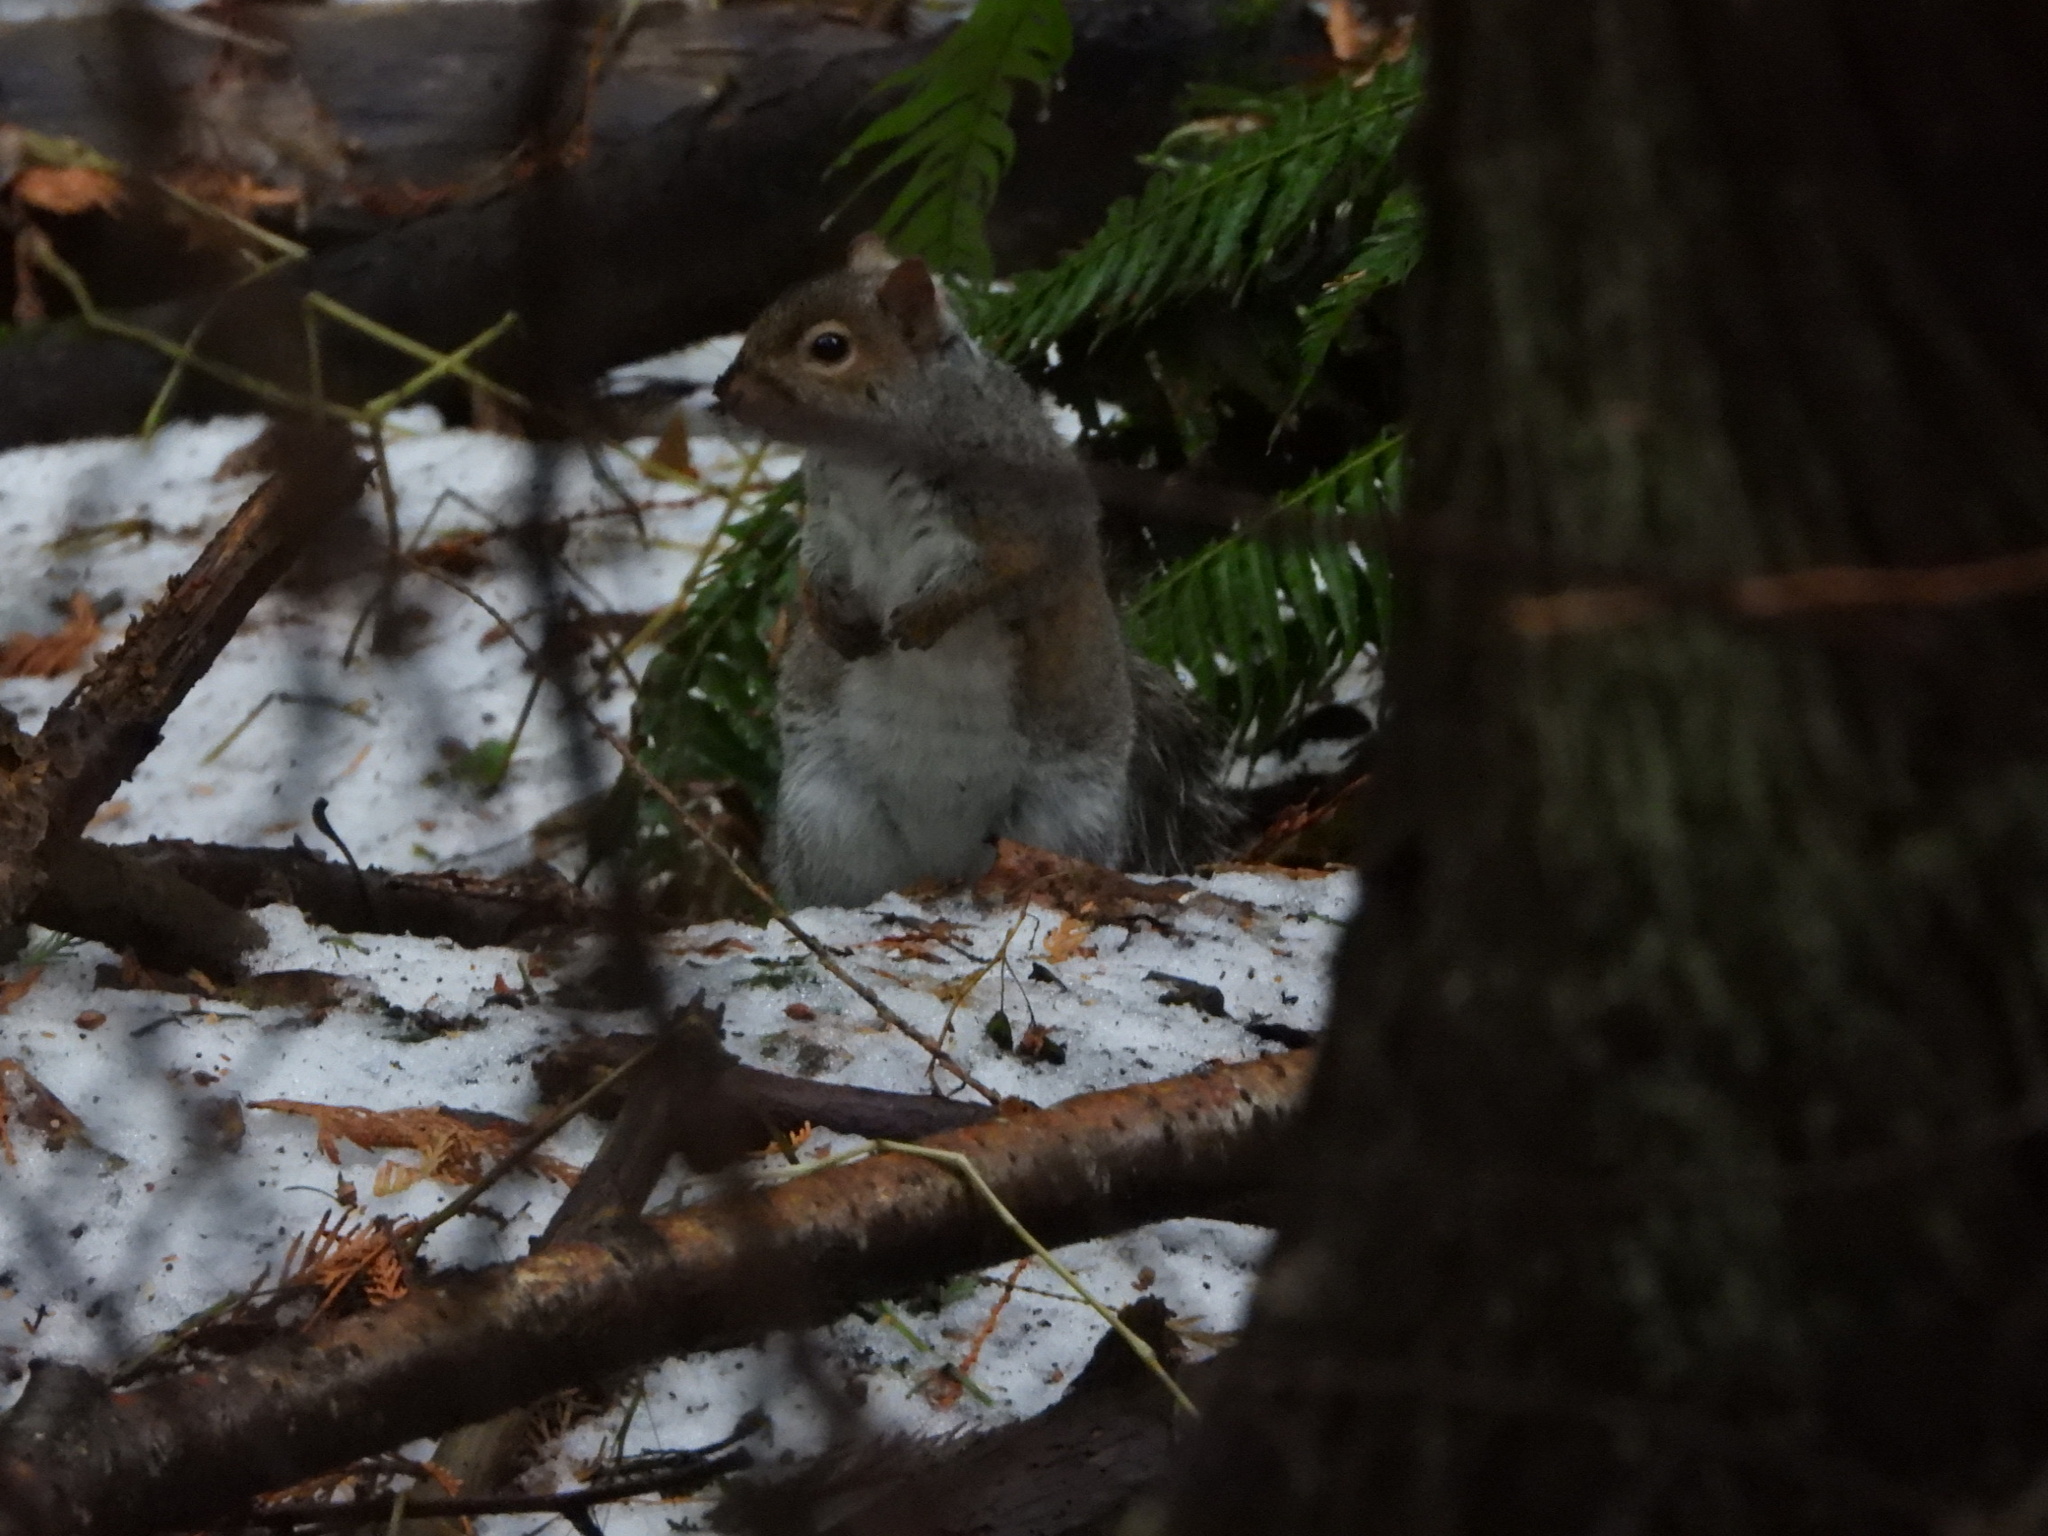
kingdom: Animalia
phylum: Chordata
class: Mammalia
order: Rodentia
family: Sciuridae
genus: Sciurus
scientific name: Sciurus carolinensis
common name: Eastern gray squirrel
